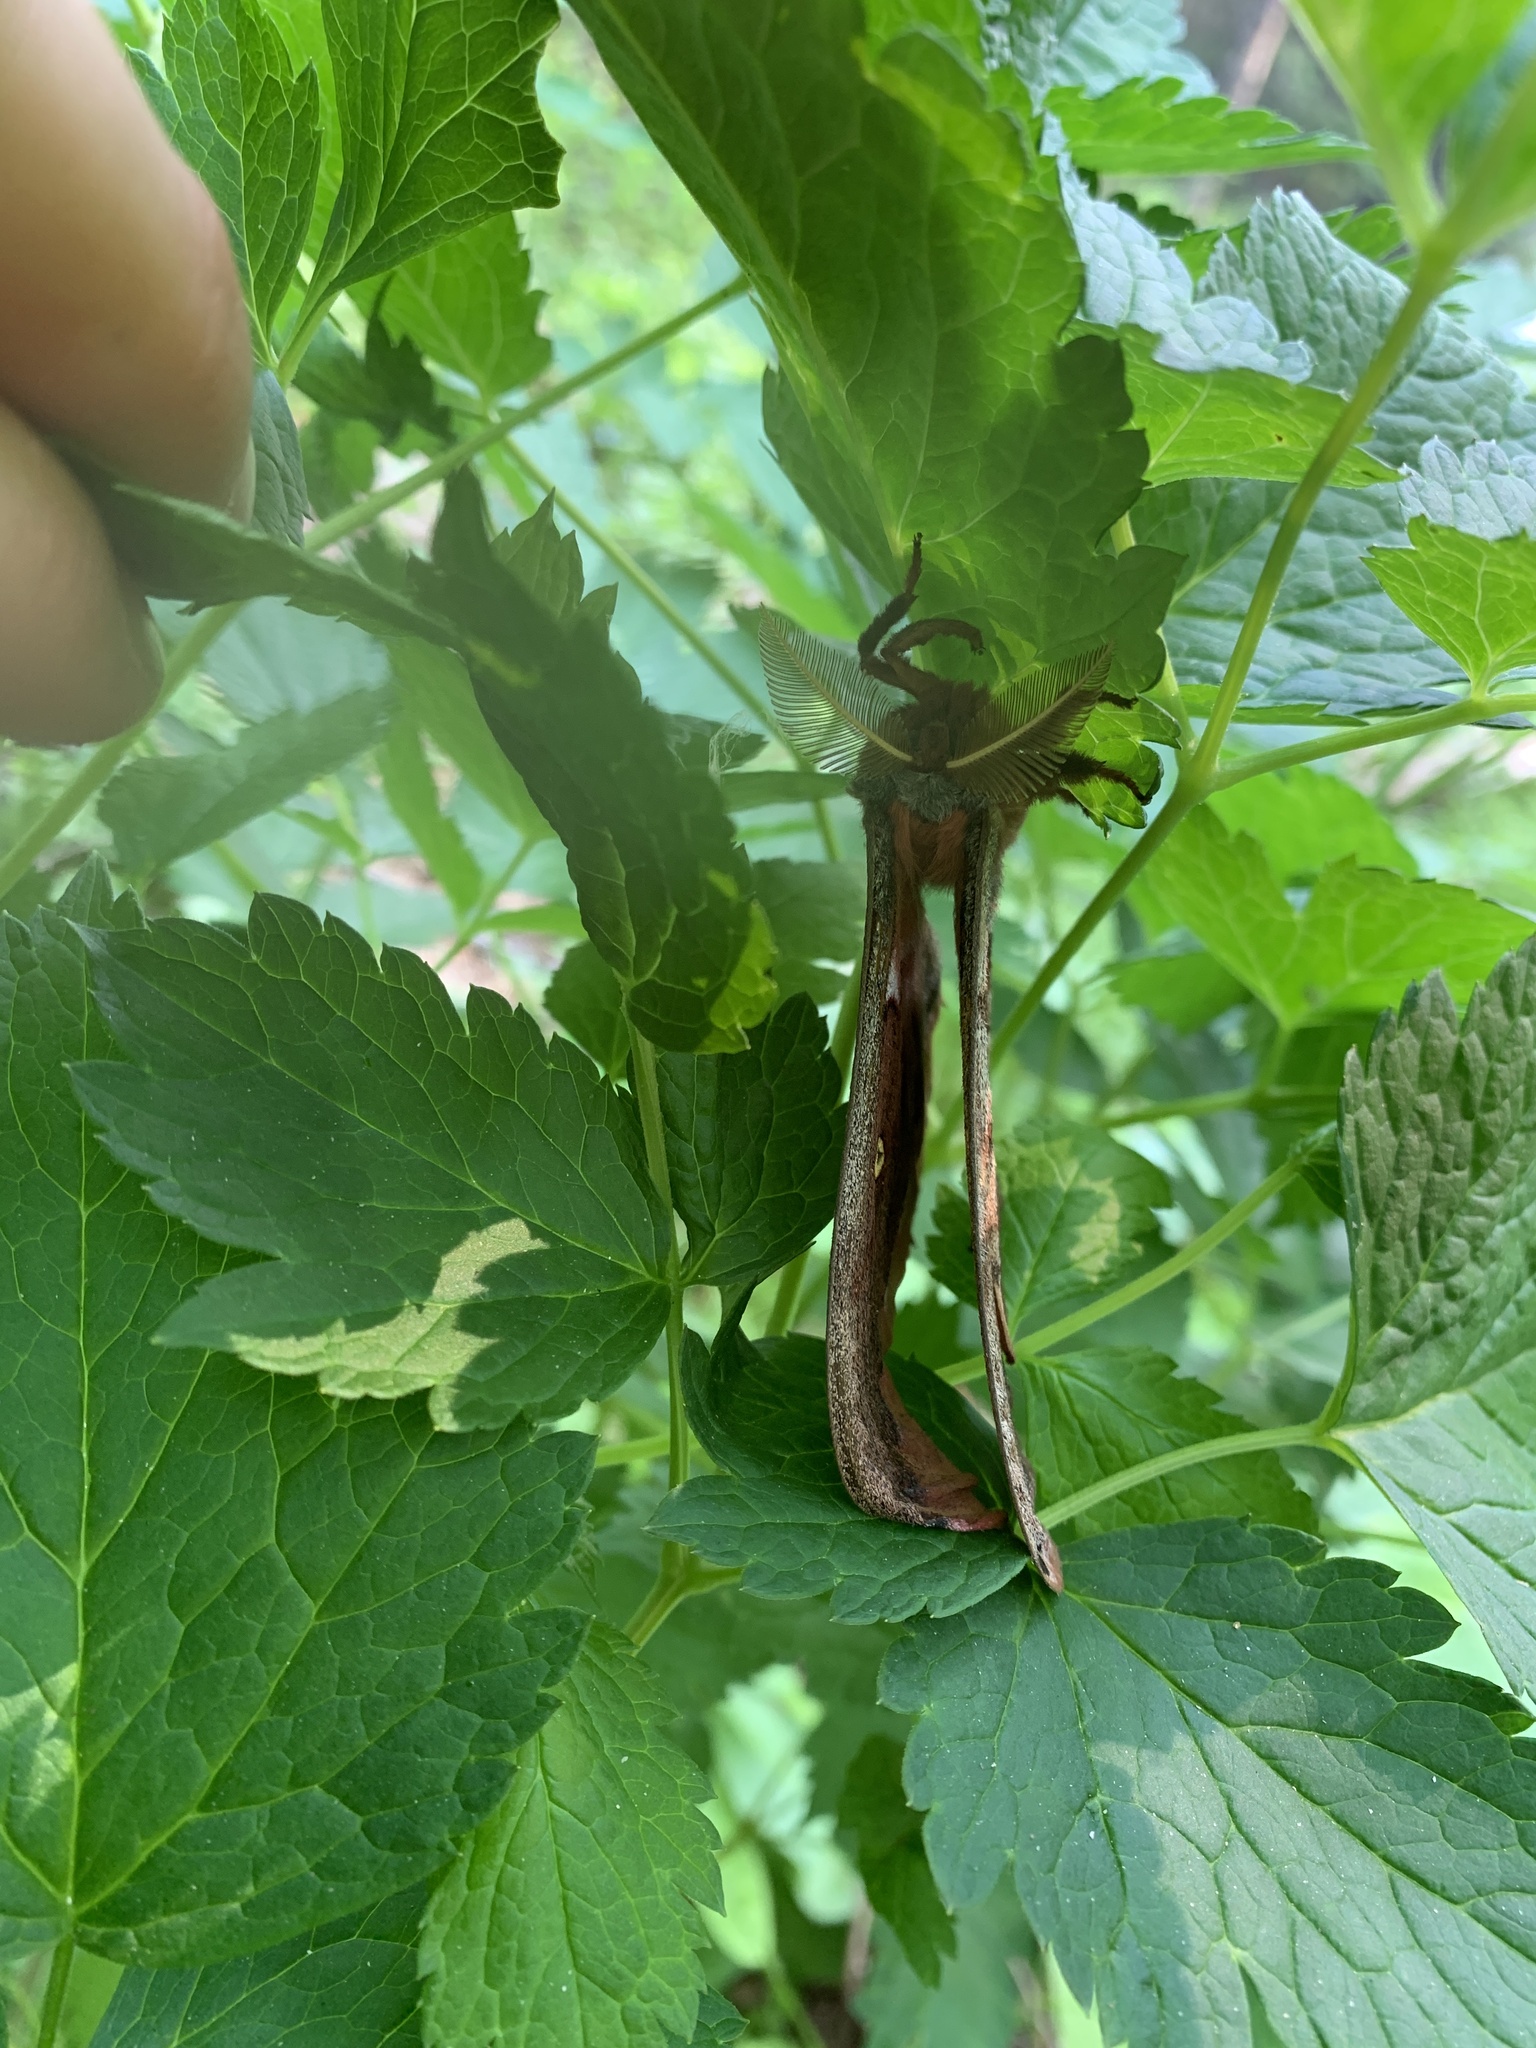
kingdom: Animalia
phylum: Arthropoda
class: Insecta
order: Lepidoptera
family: Saturniidae
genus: Antheraea
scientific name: Antheraea polyphemus
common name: Polyphemus moth
